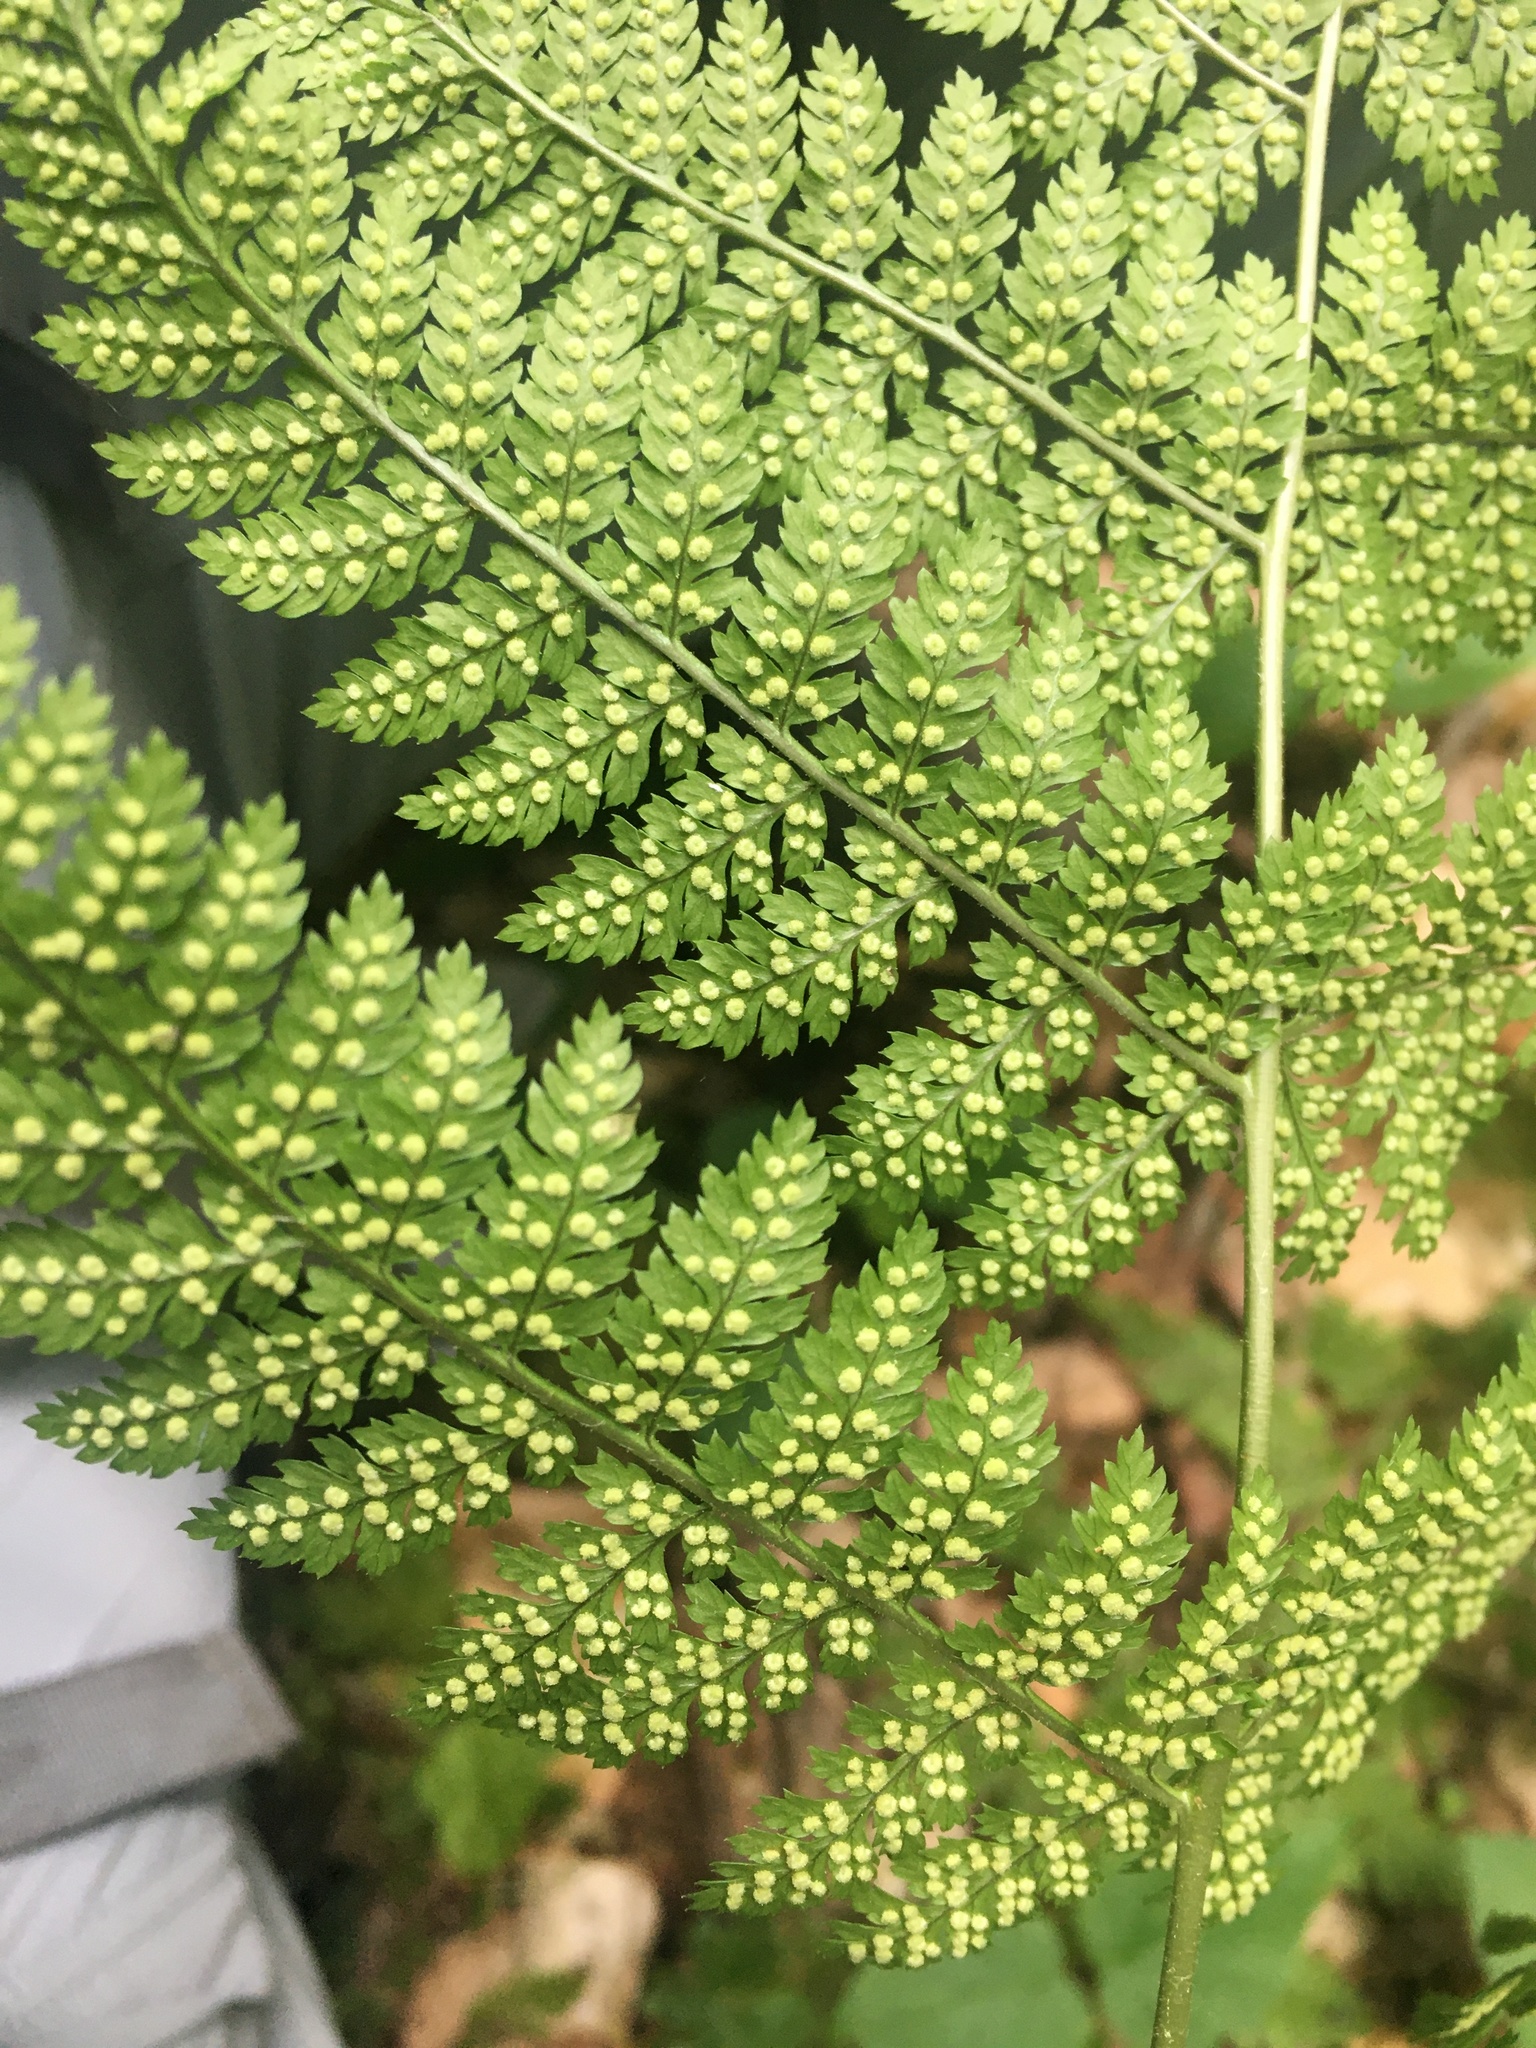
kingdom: Plantae
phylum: Tracheophyta
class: Polypodiopsida
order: Polypodiales
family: Dryopteridaceae
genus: Dryopteris
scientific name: Dryopteris intermedia
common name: Evergreen wood fern
